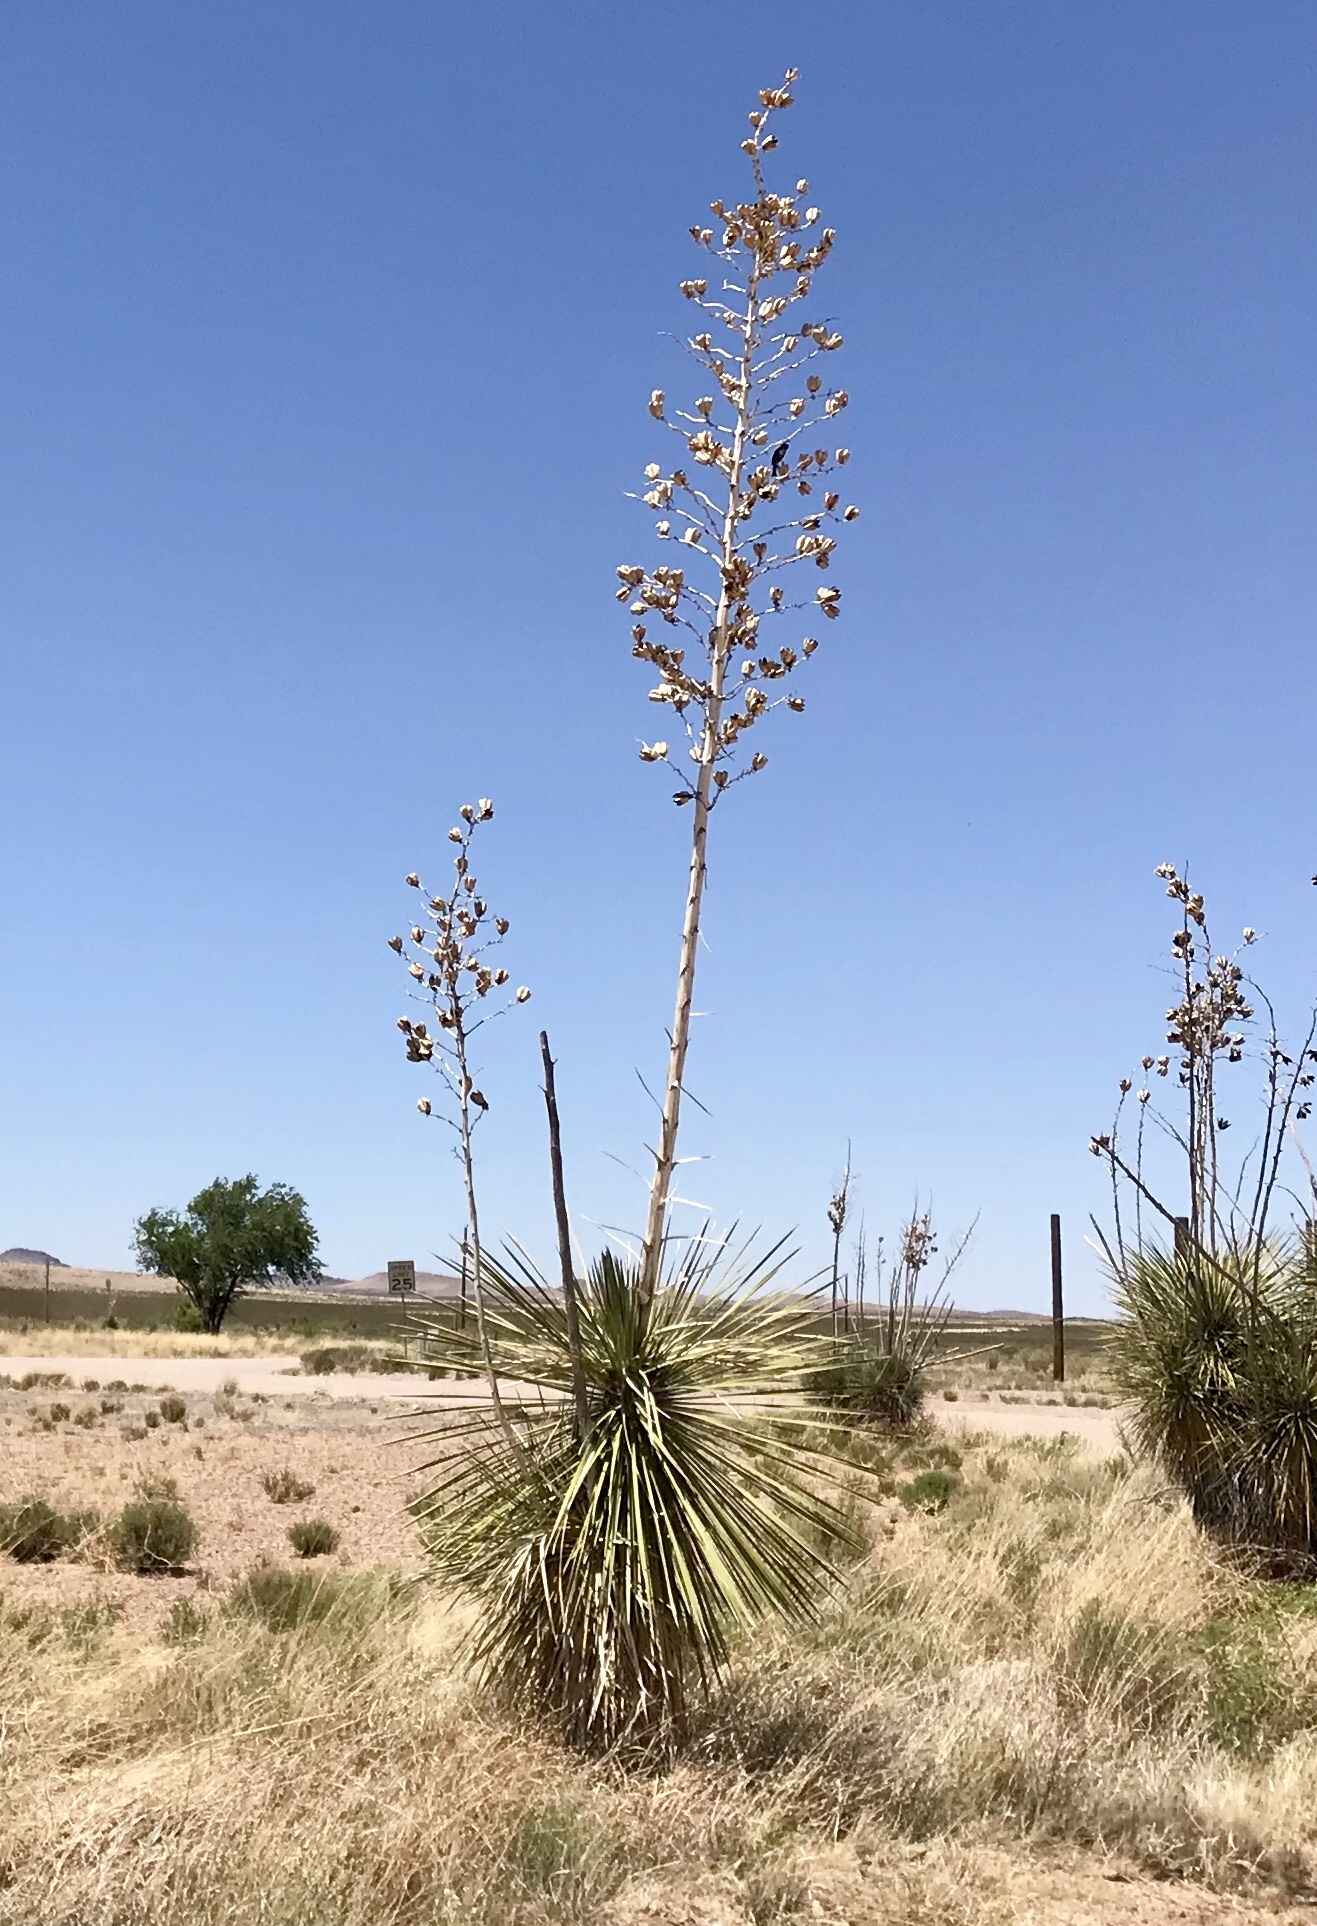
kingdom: Plantae
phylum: Tracheophyta
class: Liliopsida
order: Asparagales
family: Asparagaceae
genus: Yucca
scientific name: Yucca elata
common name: Palmella
